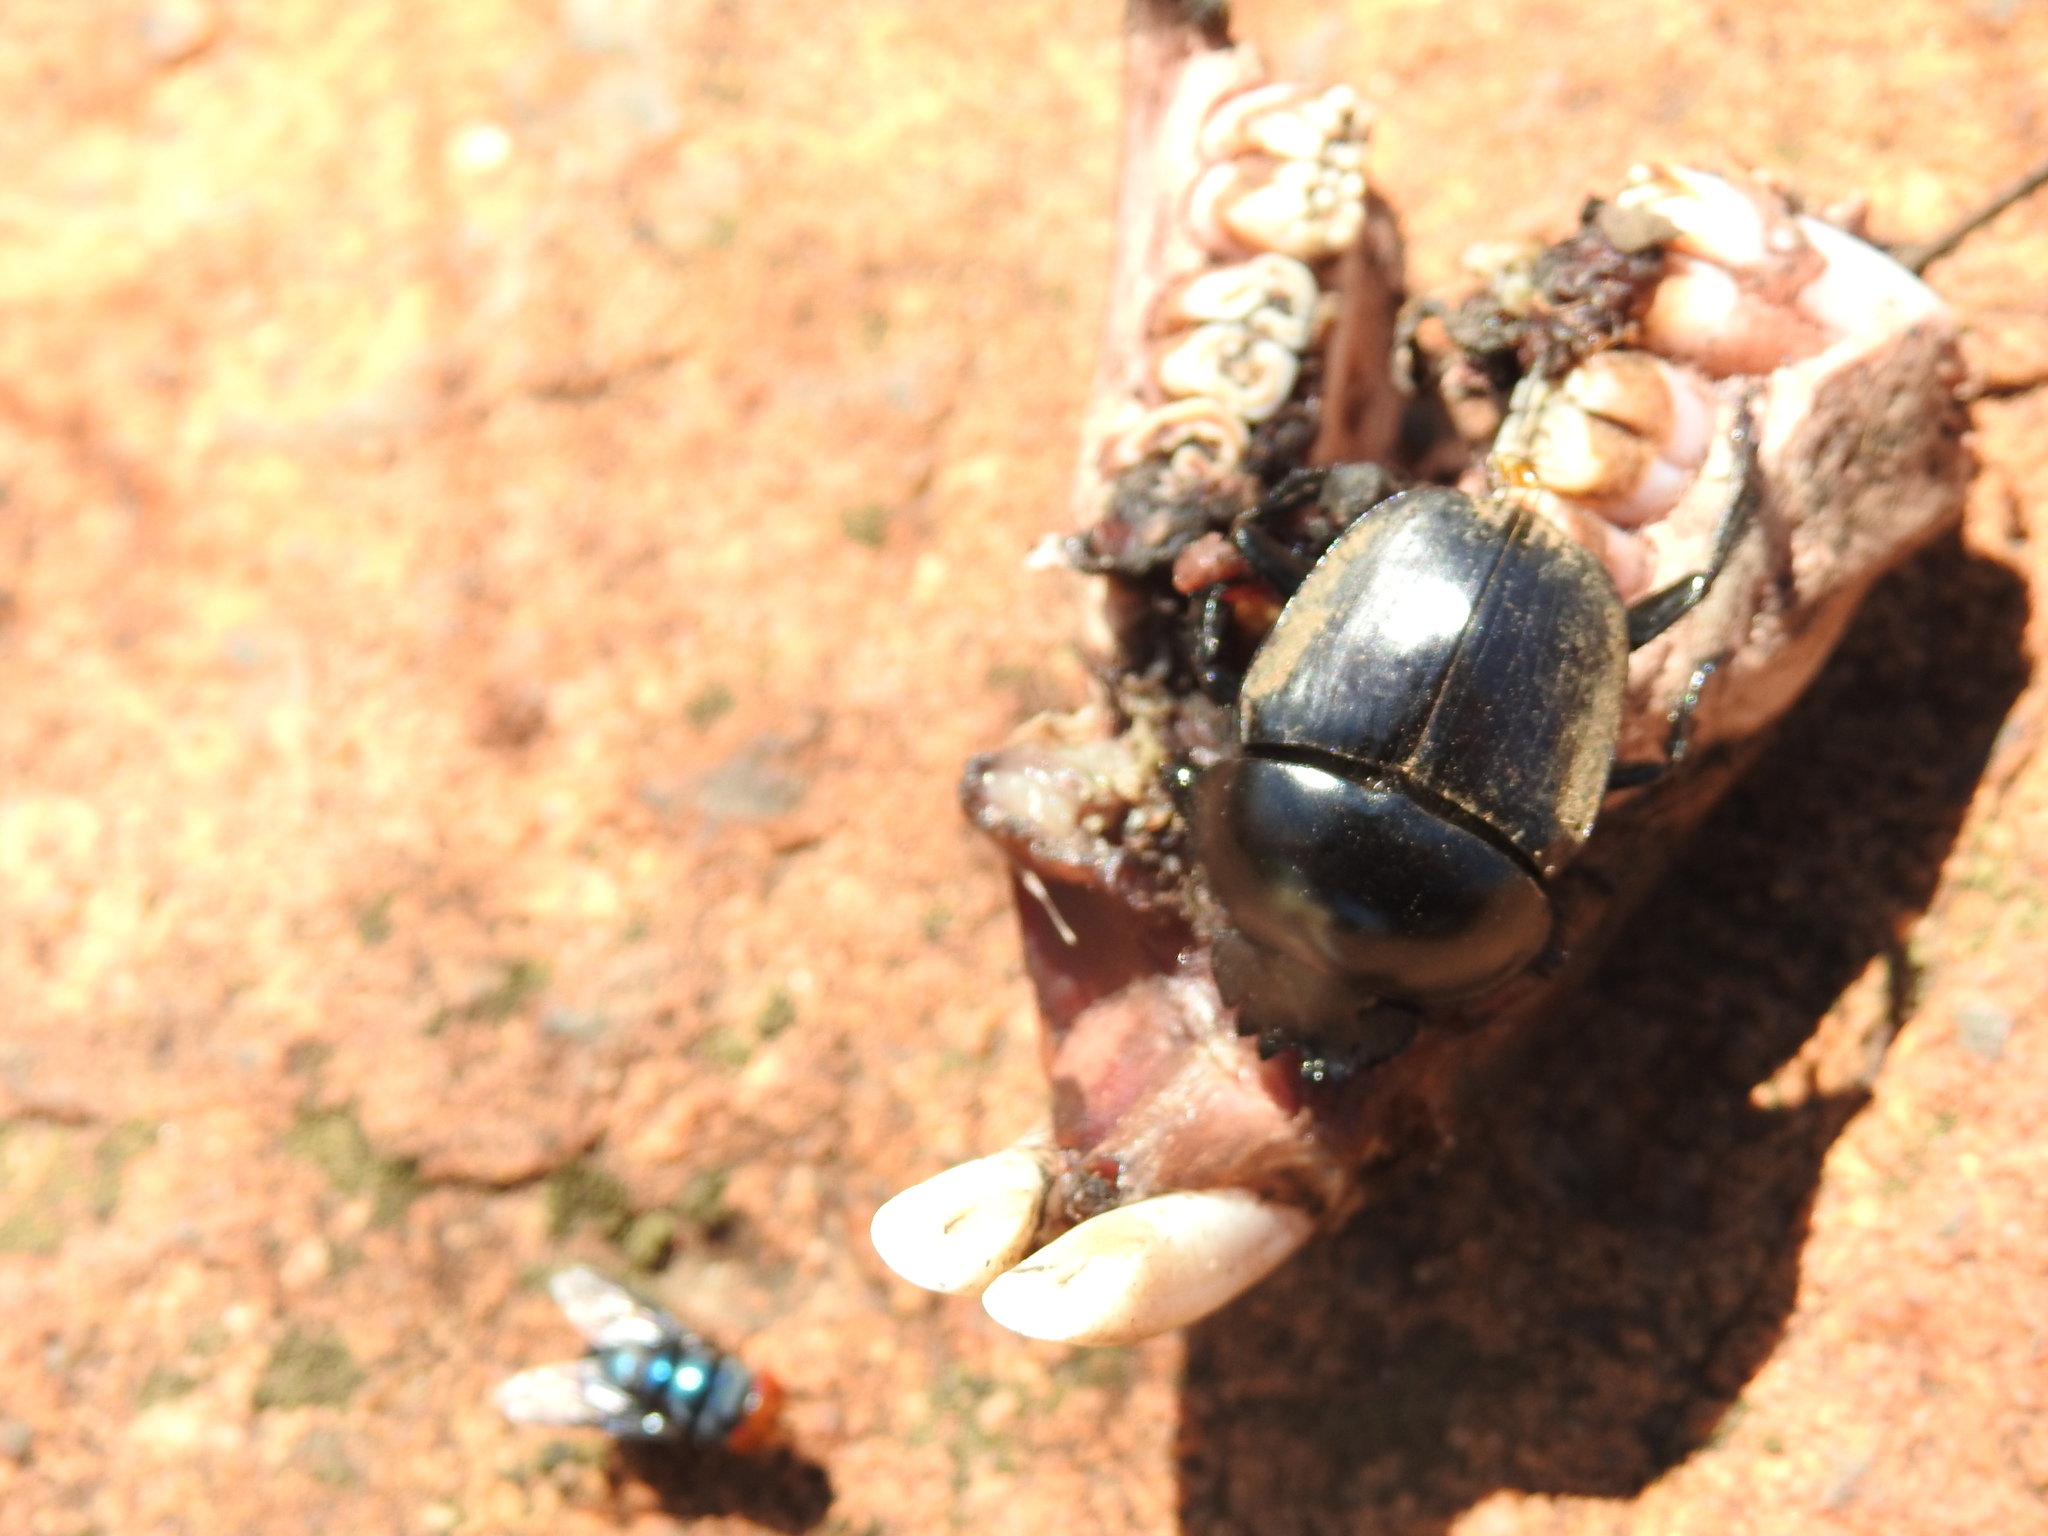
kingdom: Animalia
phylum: Arthropoda
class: Insecta
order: Coleoptera
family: Scarabaeidae
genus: Scarabaeus
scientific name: Scarabaeus rusticus
